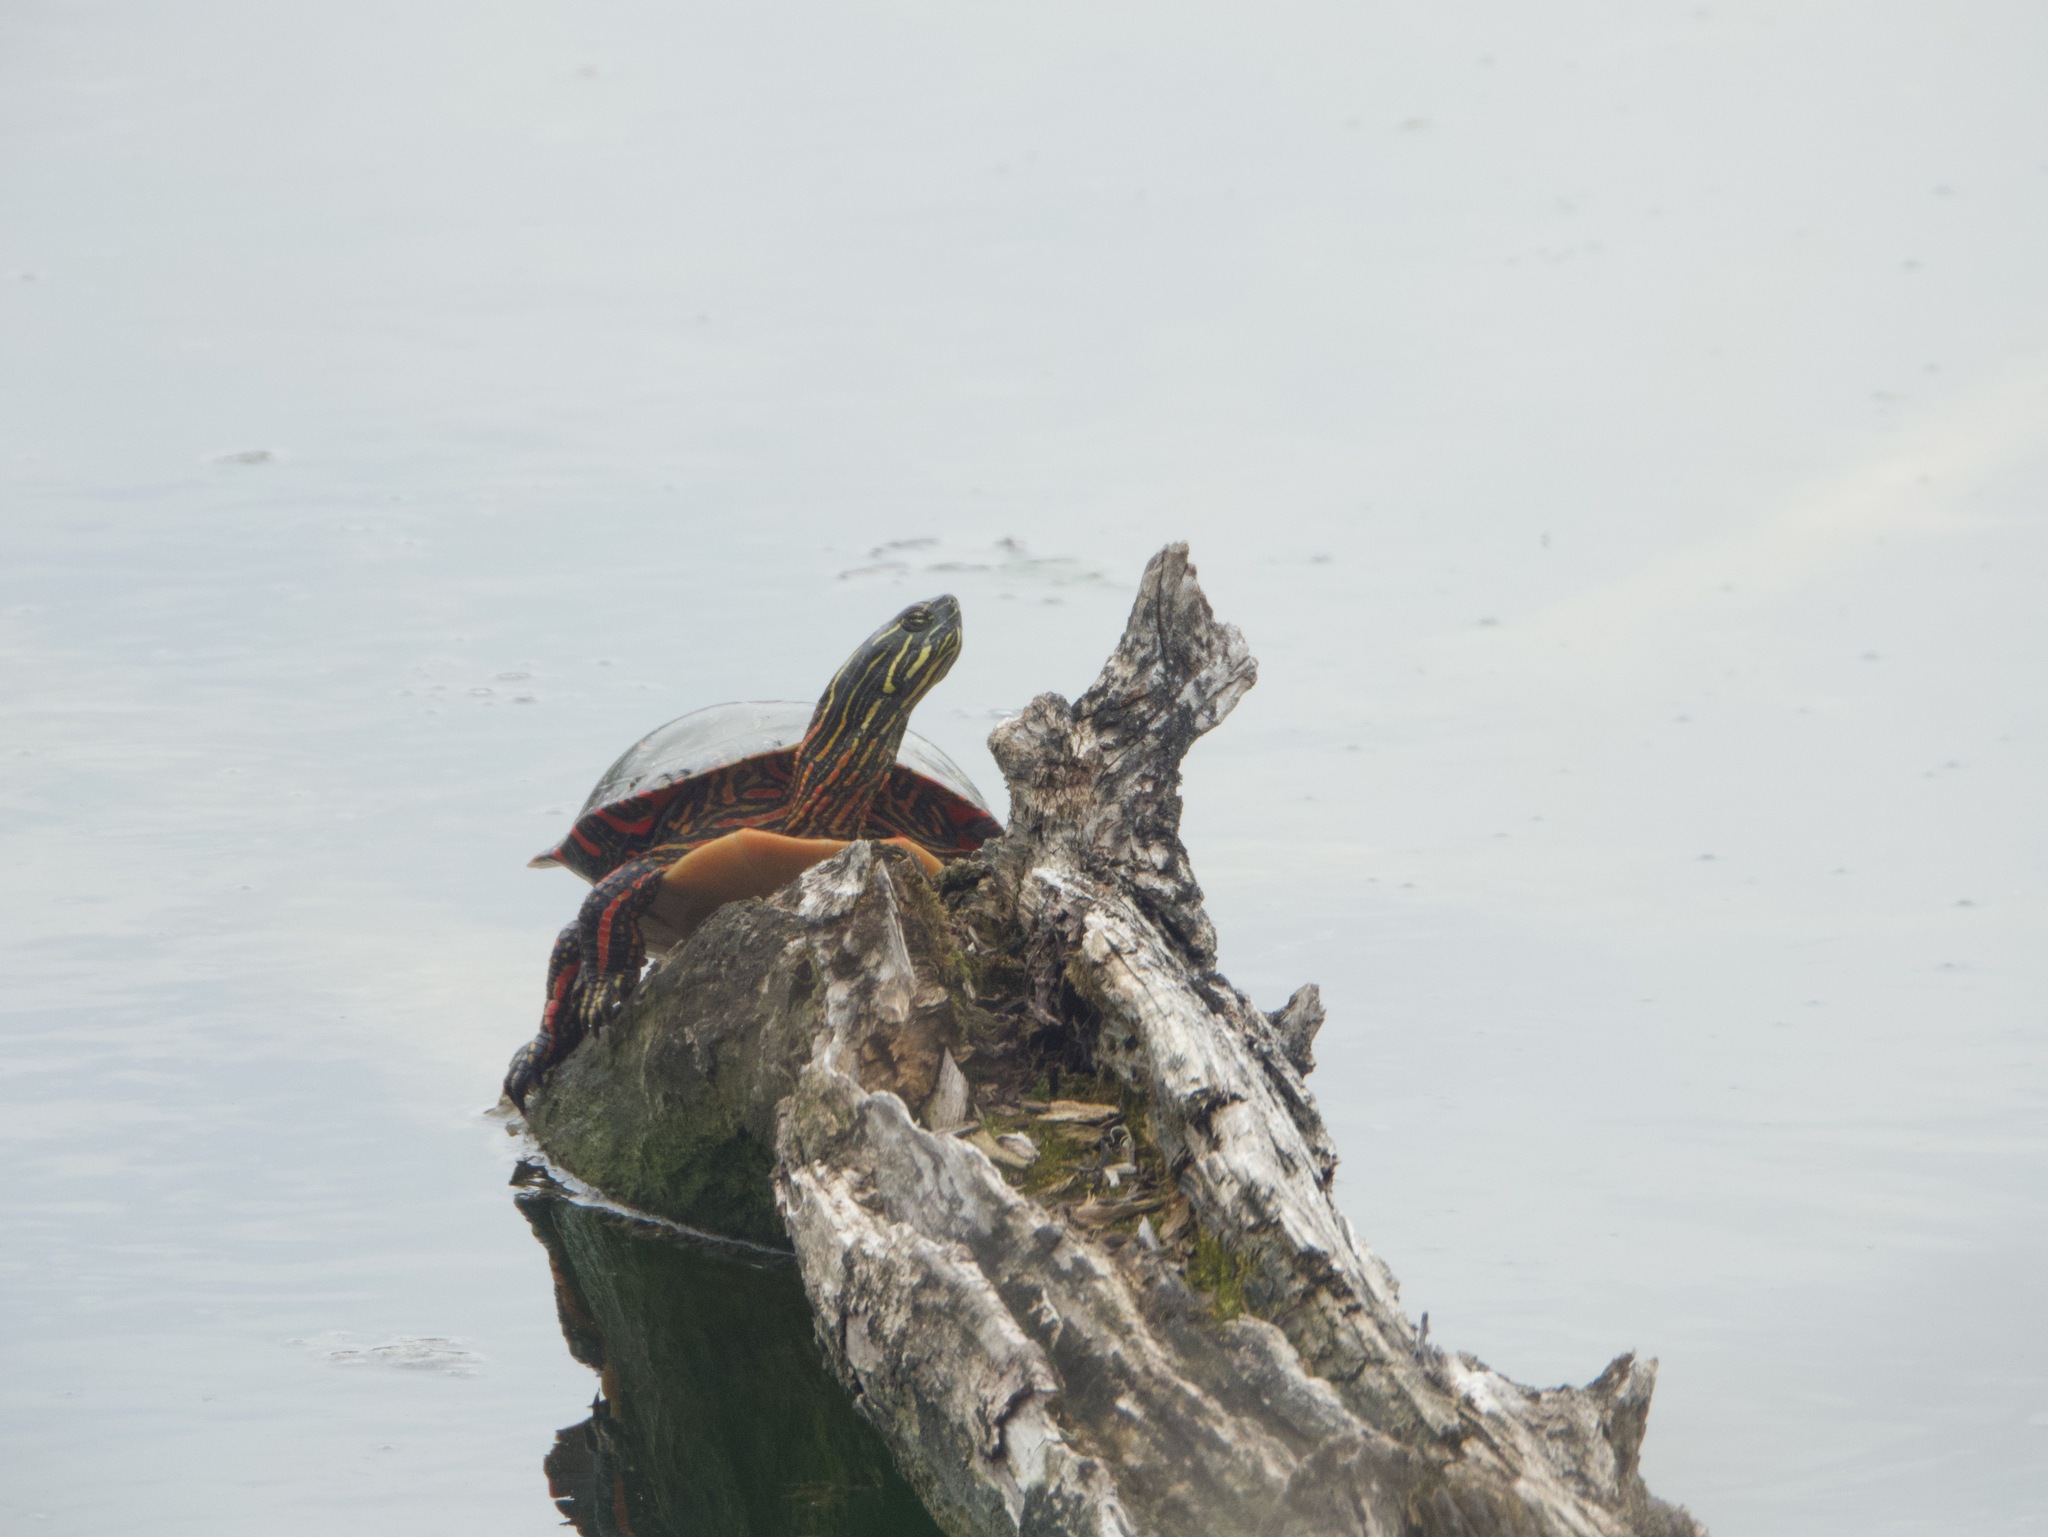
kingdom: Animalia
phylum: Chordata
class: Testudines
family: Emydidae
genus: Chrysemys
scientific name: Chrysemys picta
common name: Painted turtle
